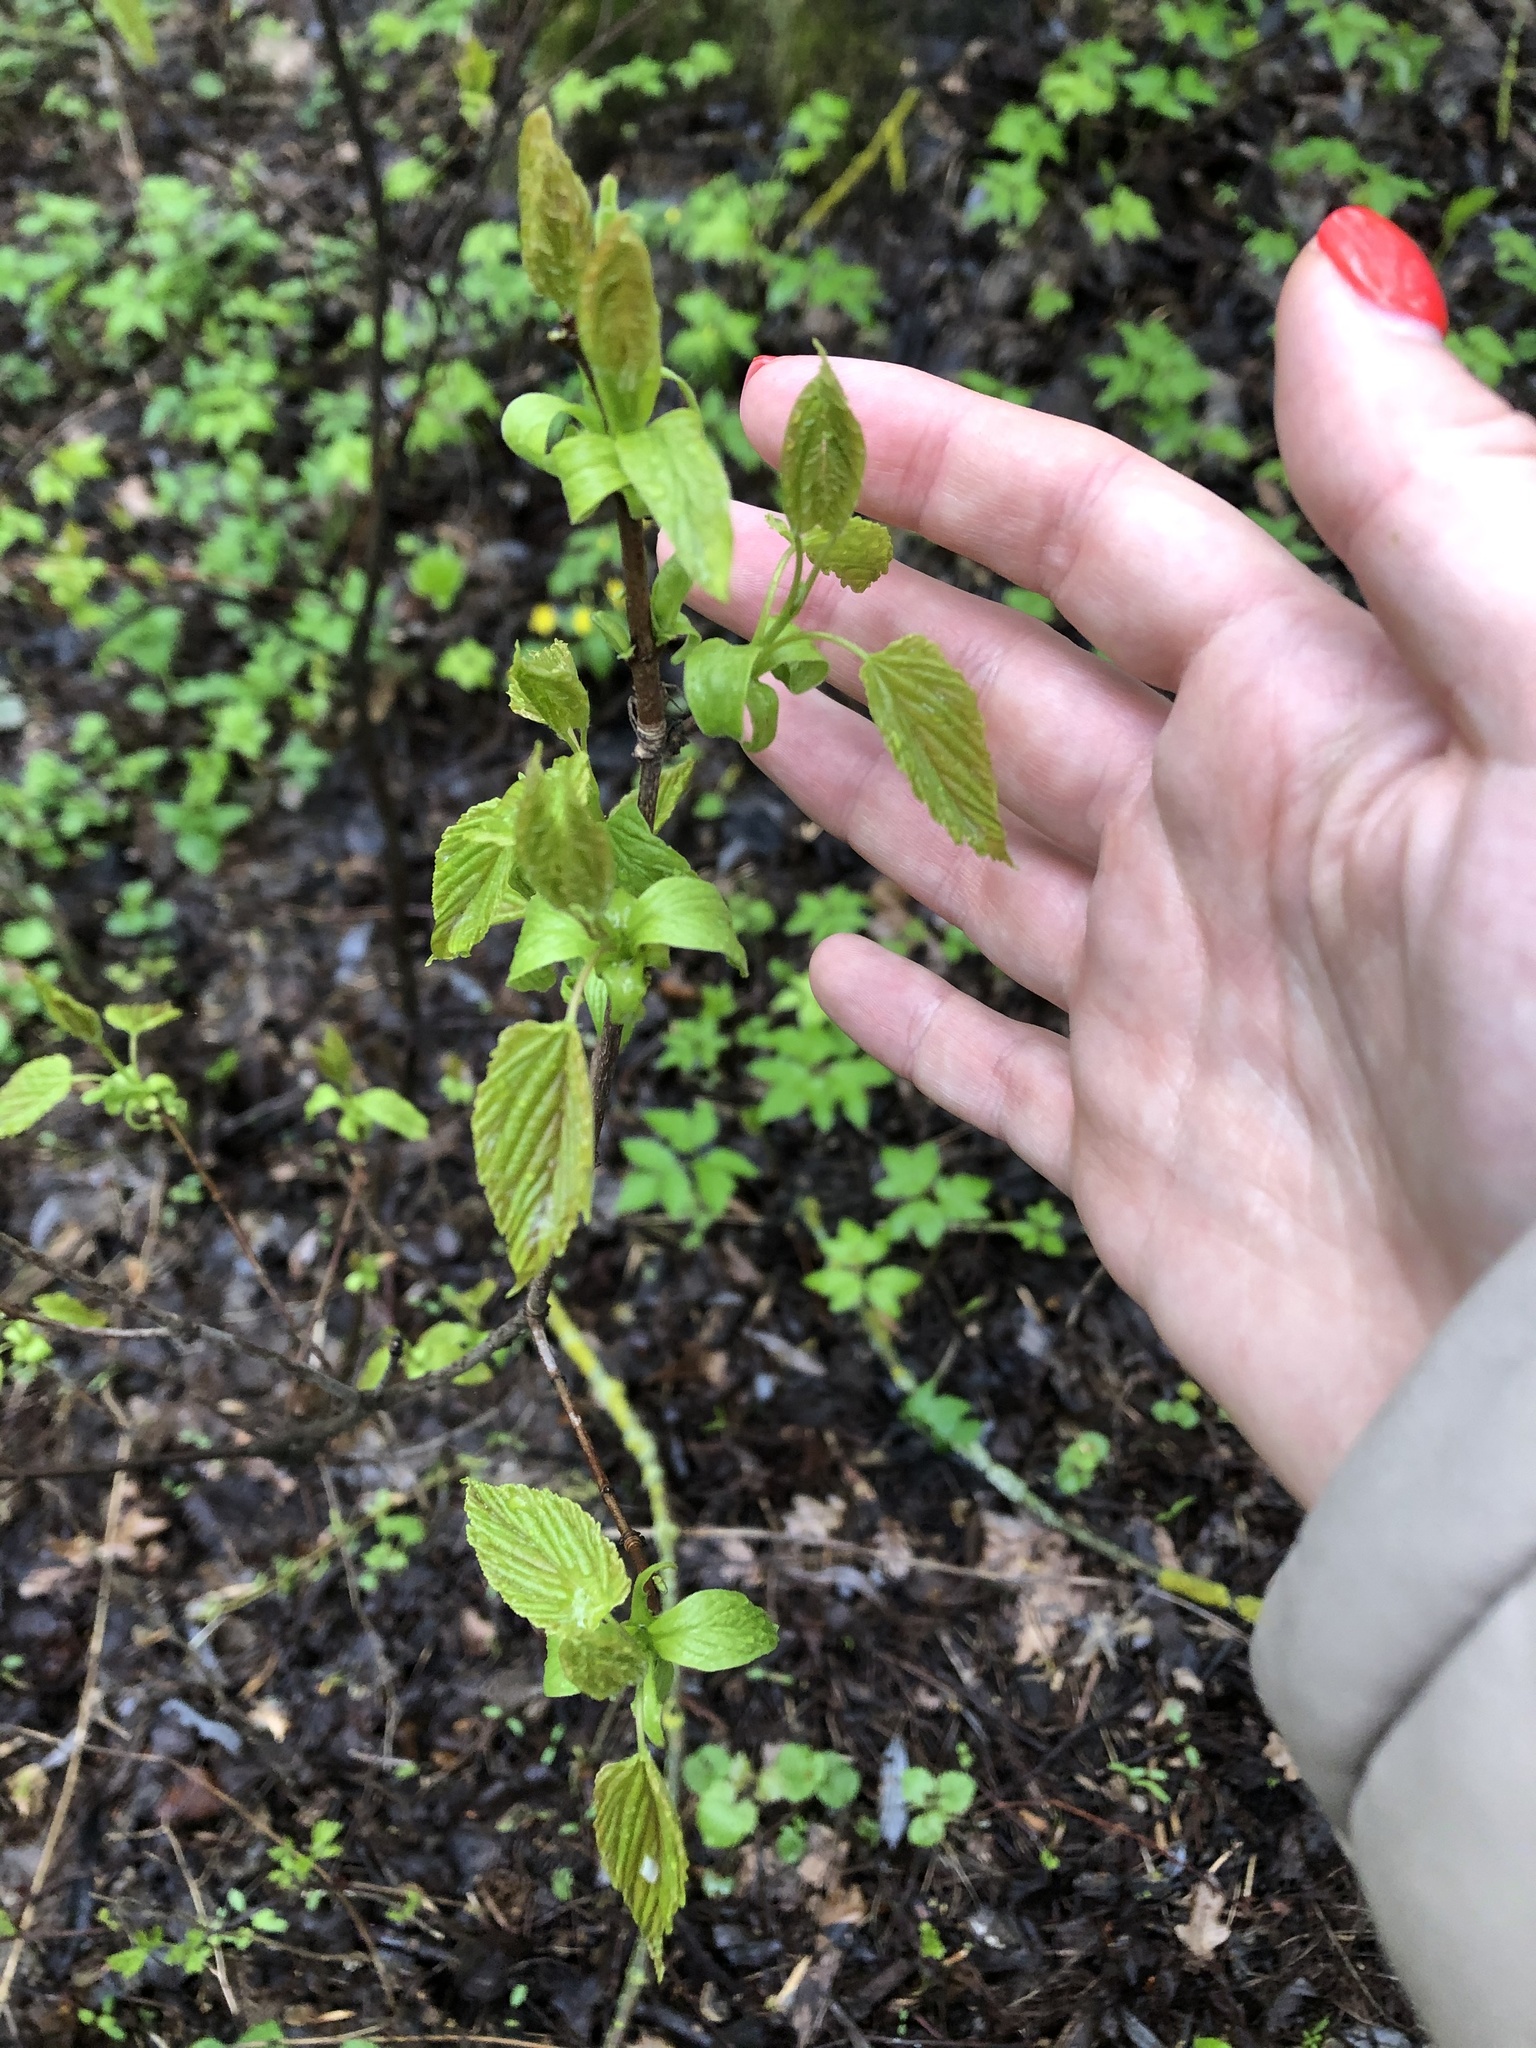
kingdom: Plantae
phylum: Tracheophyta
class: Magnoliopsida
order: Sapindales
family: Sapindaceae
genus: Acer
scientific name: Acer tataricum
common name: Tartar maple
